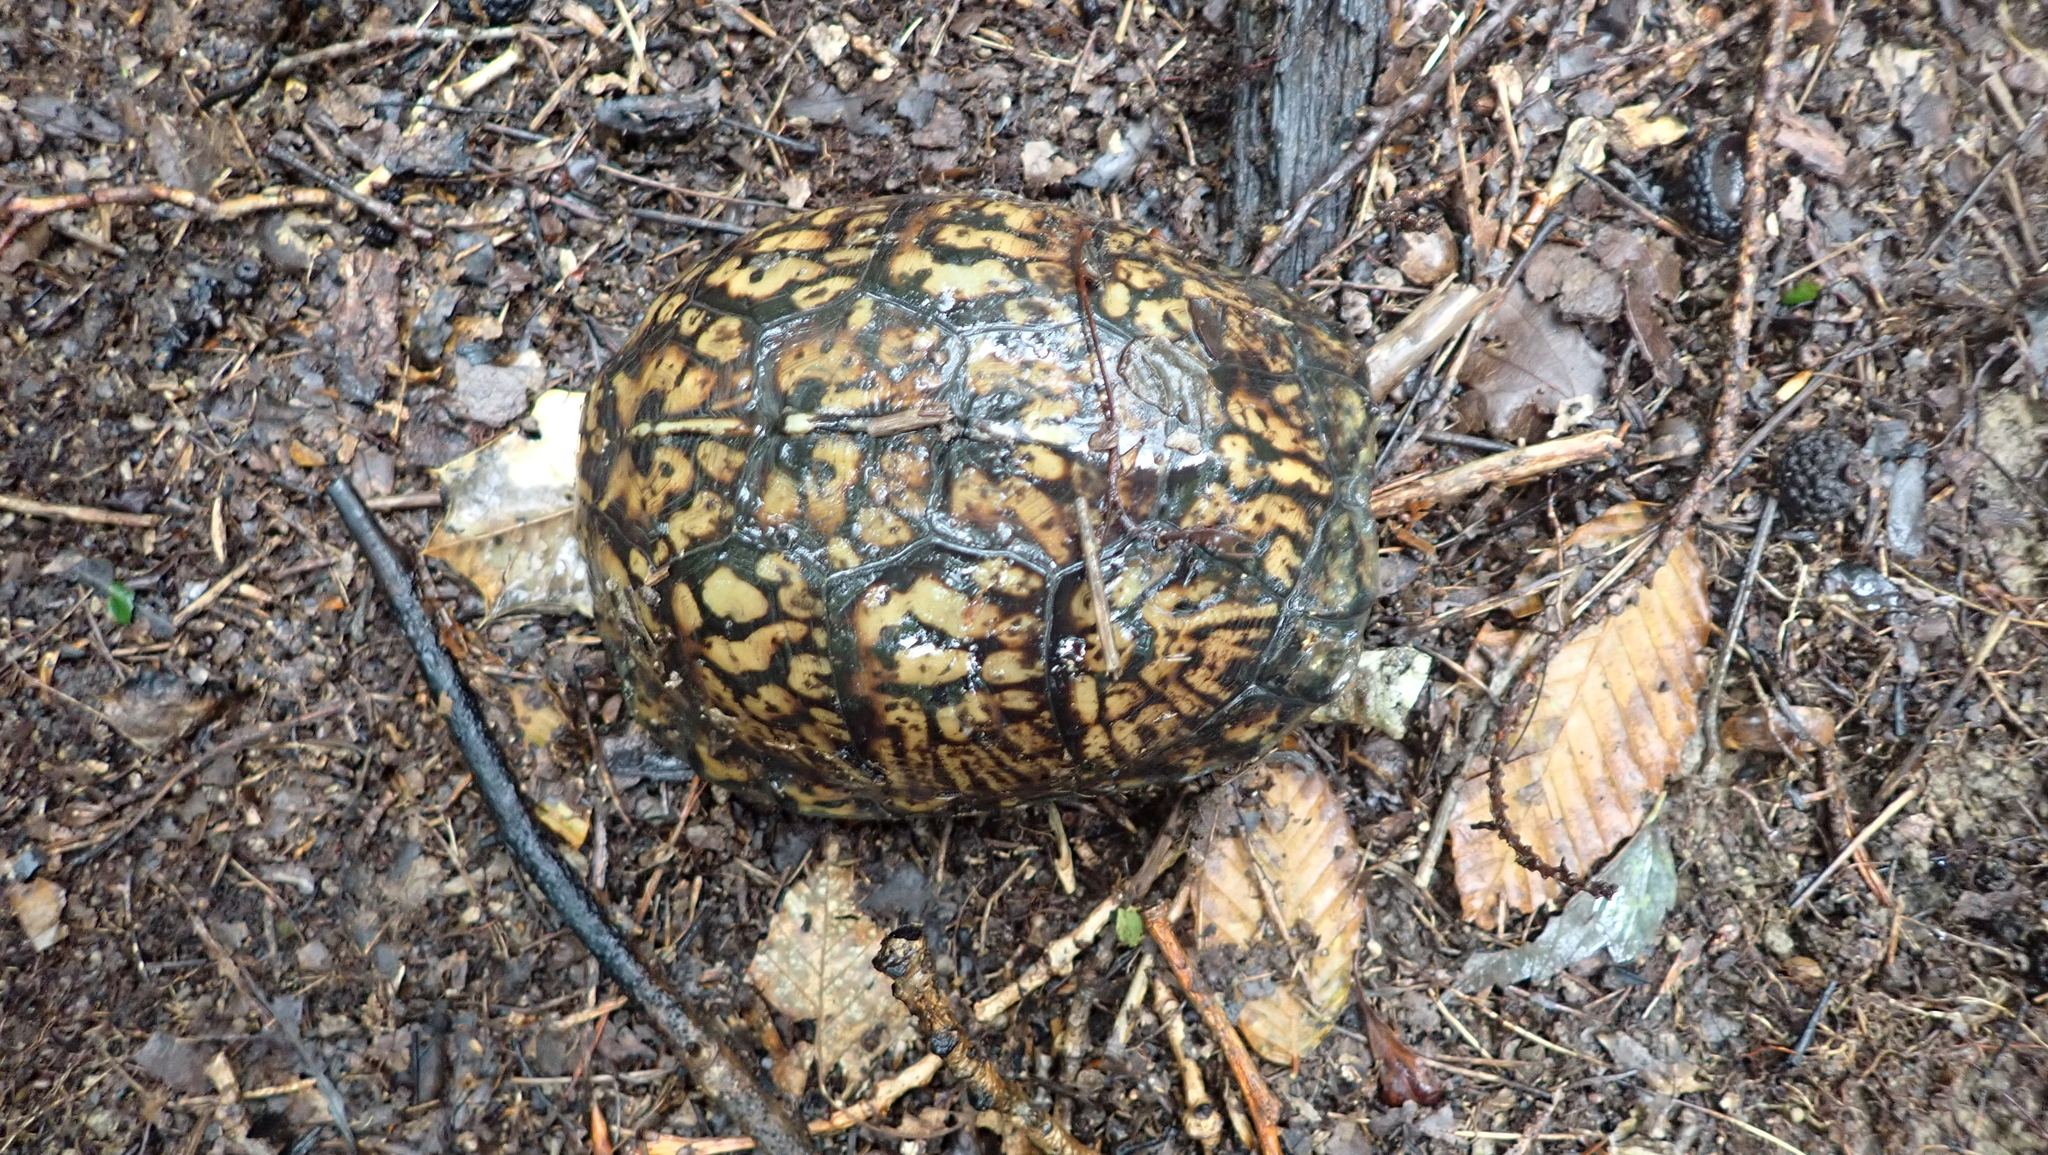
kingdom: Animalia
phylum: Chordata
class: Testudines
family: Emydidae
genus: Terrapene
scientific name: Terrapene carolina
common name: Common box turtle
